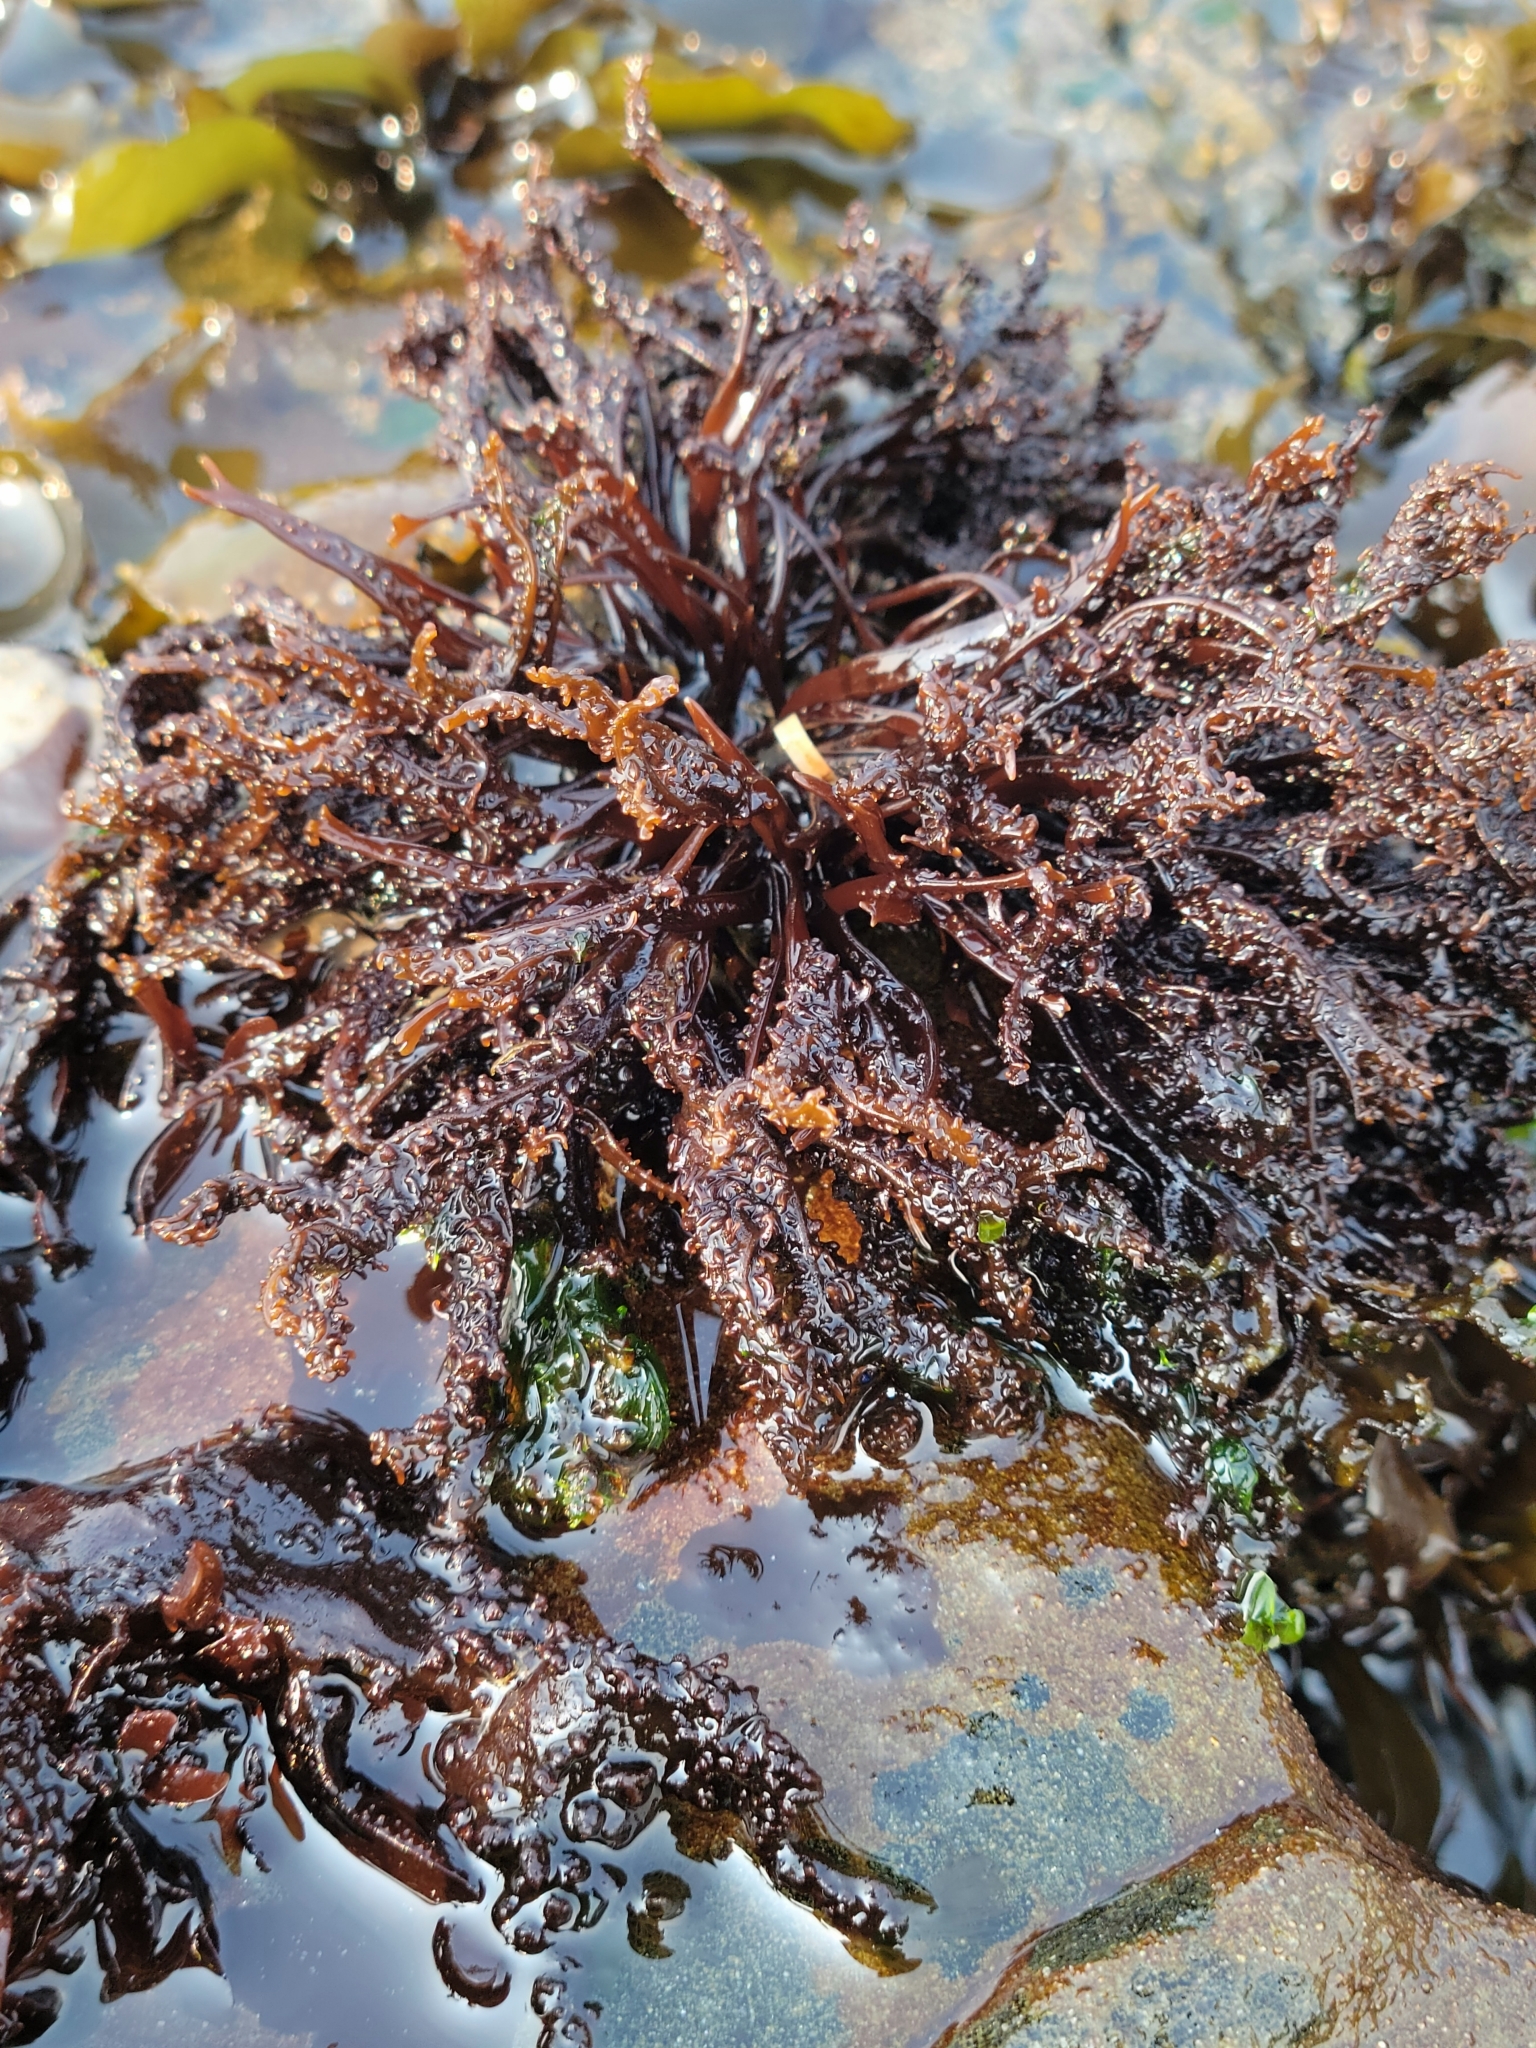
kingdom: Plantae
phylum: Rhodophyta
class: Florideophyceae
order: Gigartinales
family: Phyllophoraceae
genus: Mastocarpus
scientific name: Mastocarpus jardinii
